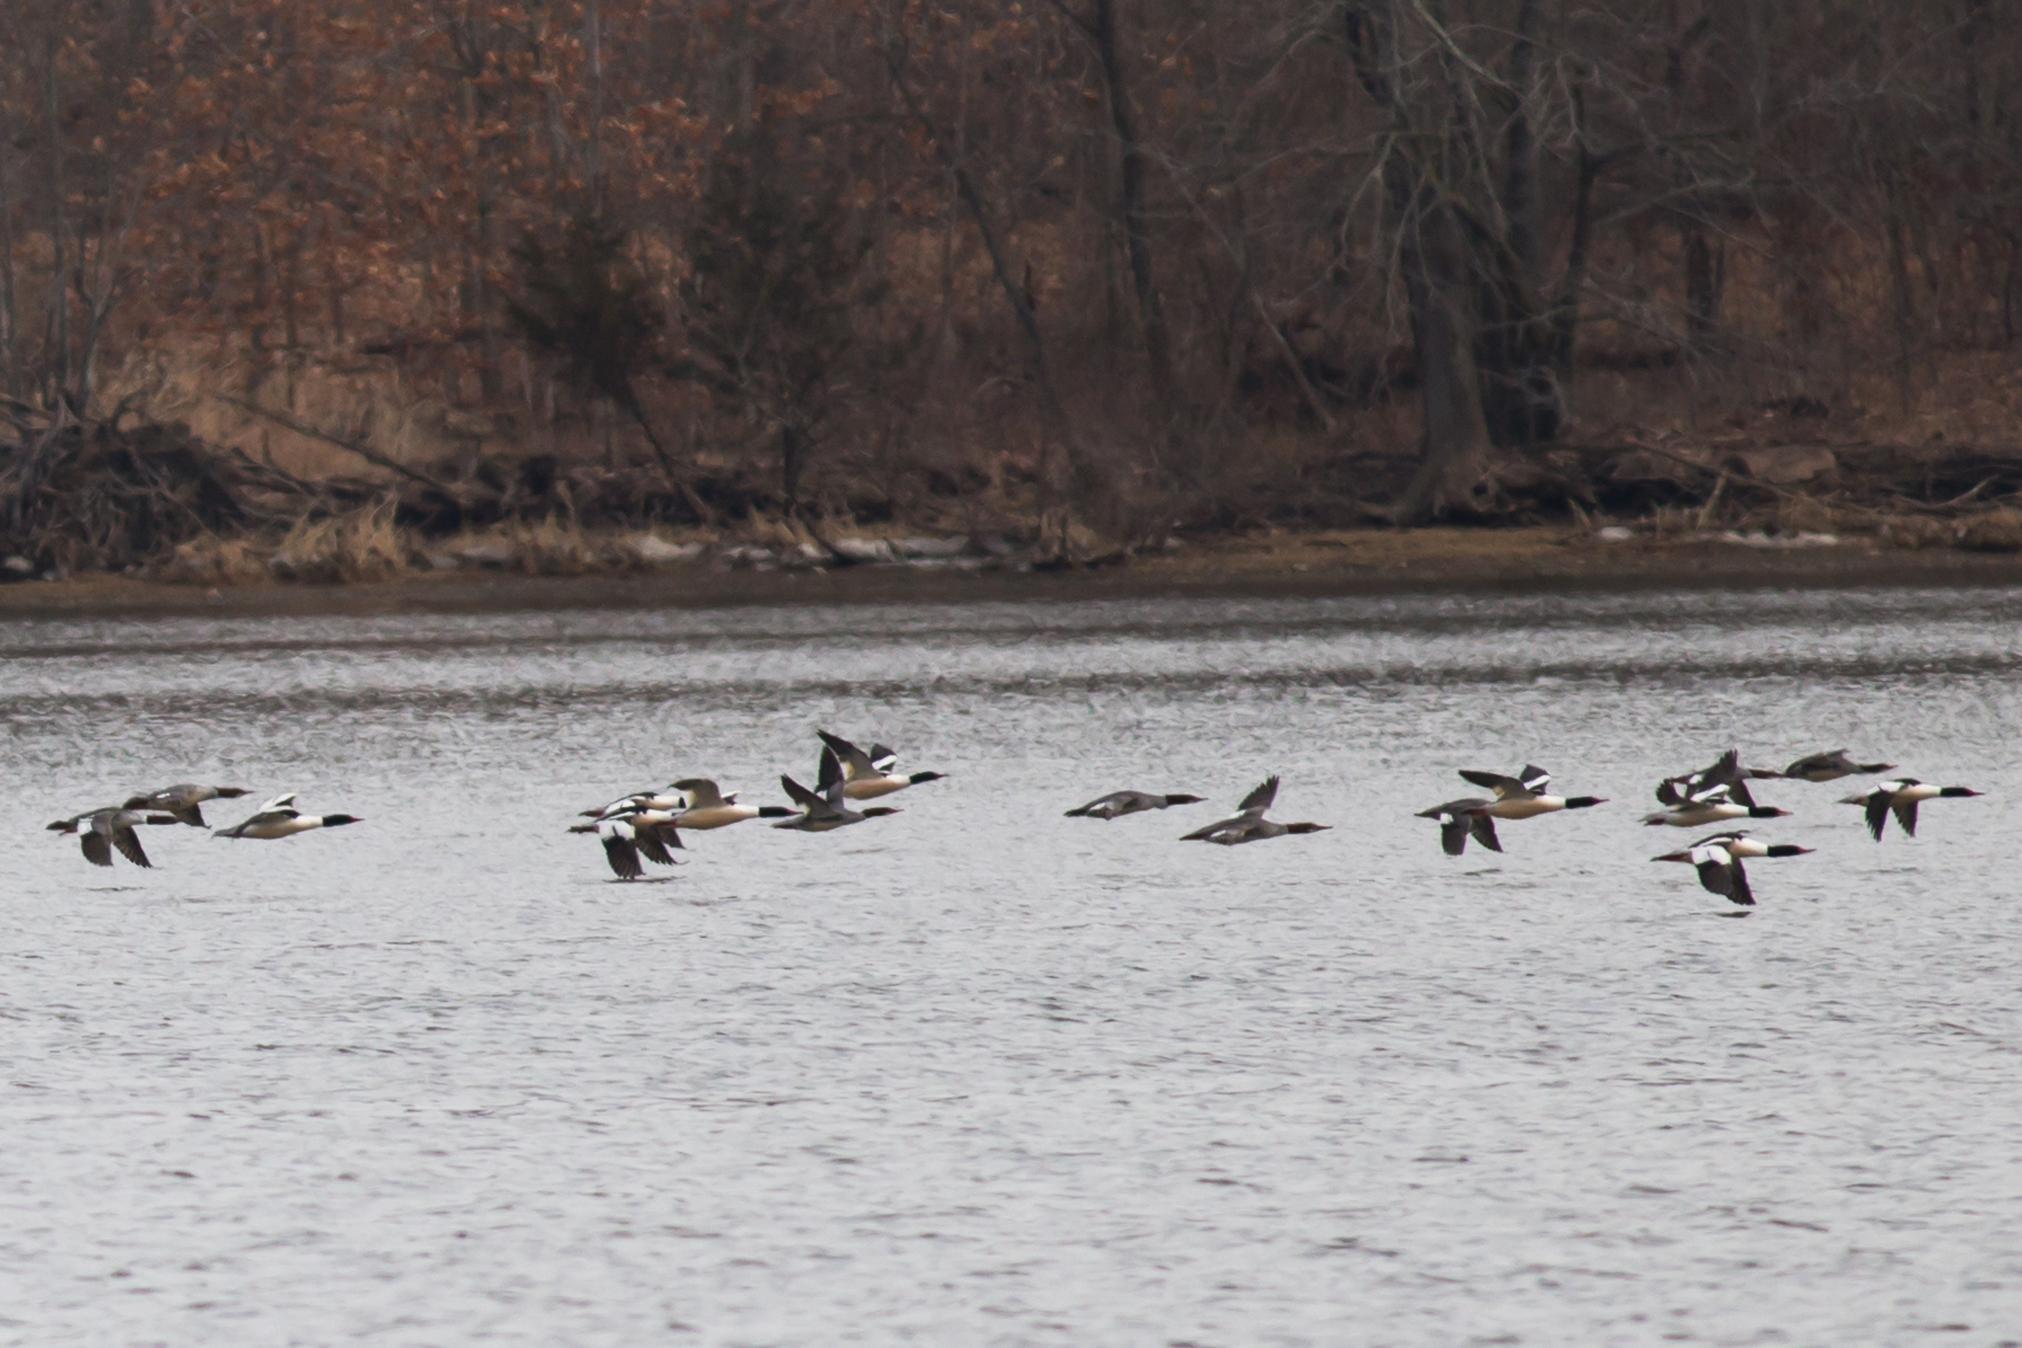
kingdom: Animalia
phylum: Chordata
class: Aves
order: Anseriformes
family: Anatidae
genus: Mergus
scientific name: Mergus merganser
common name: Common merganser
